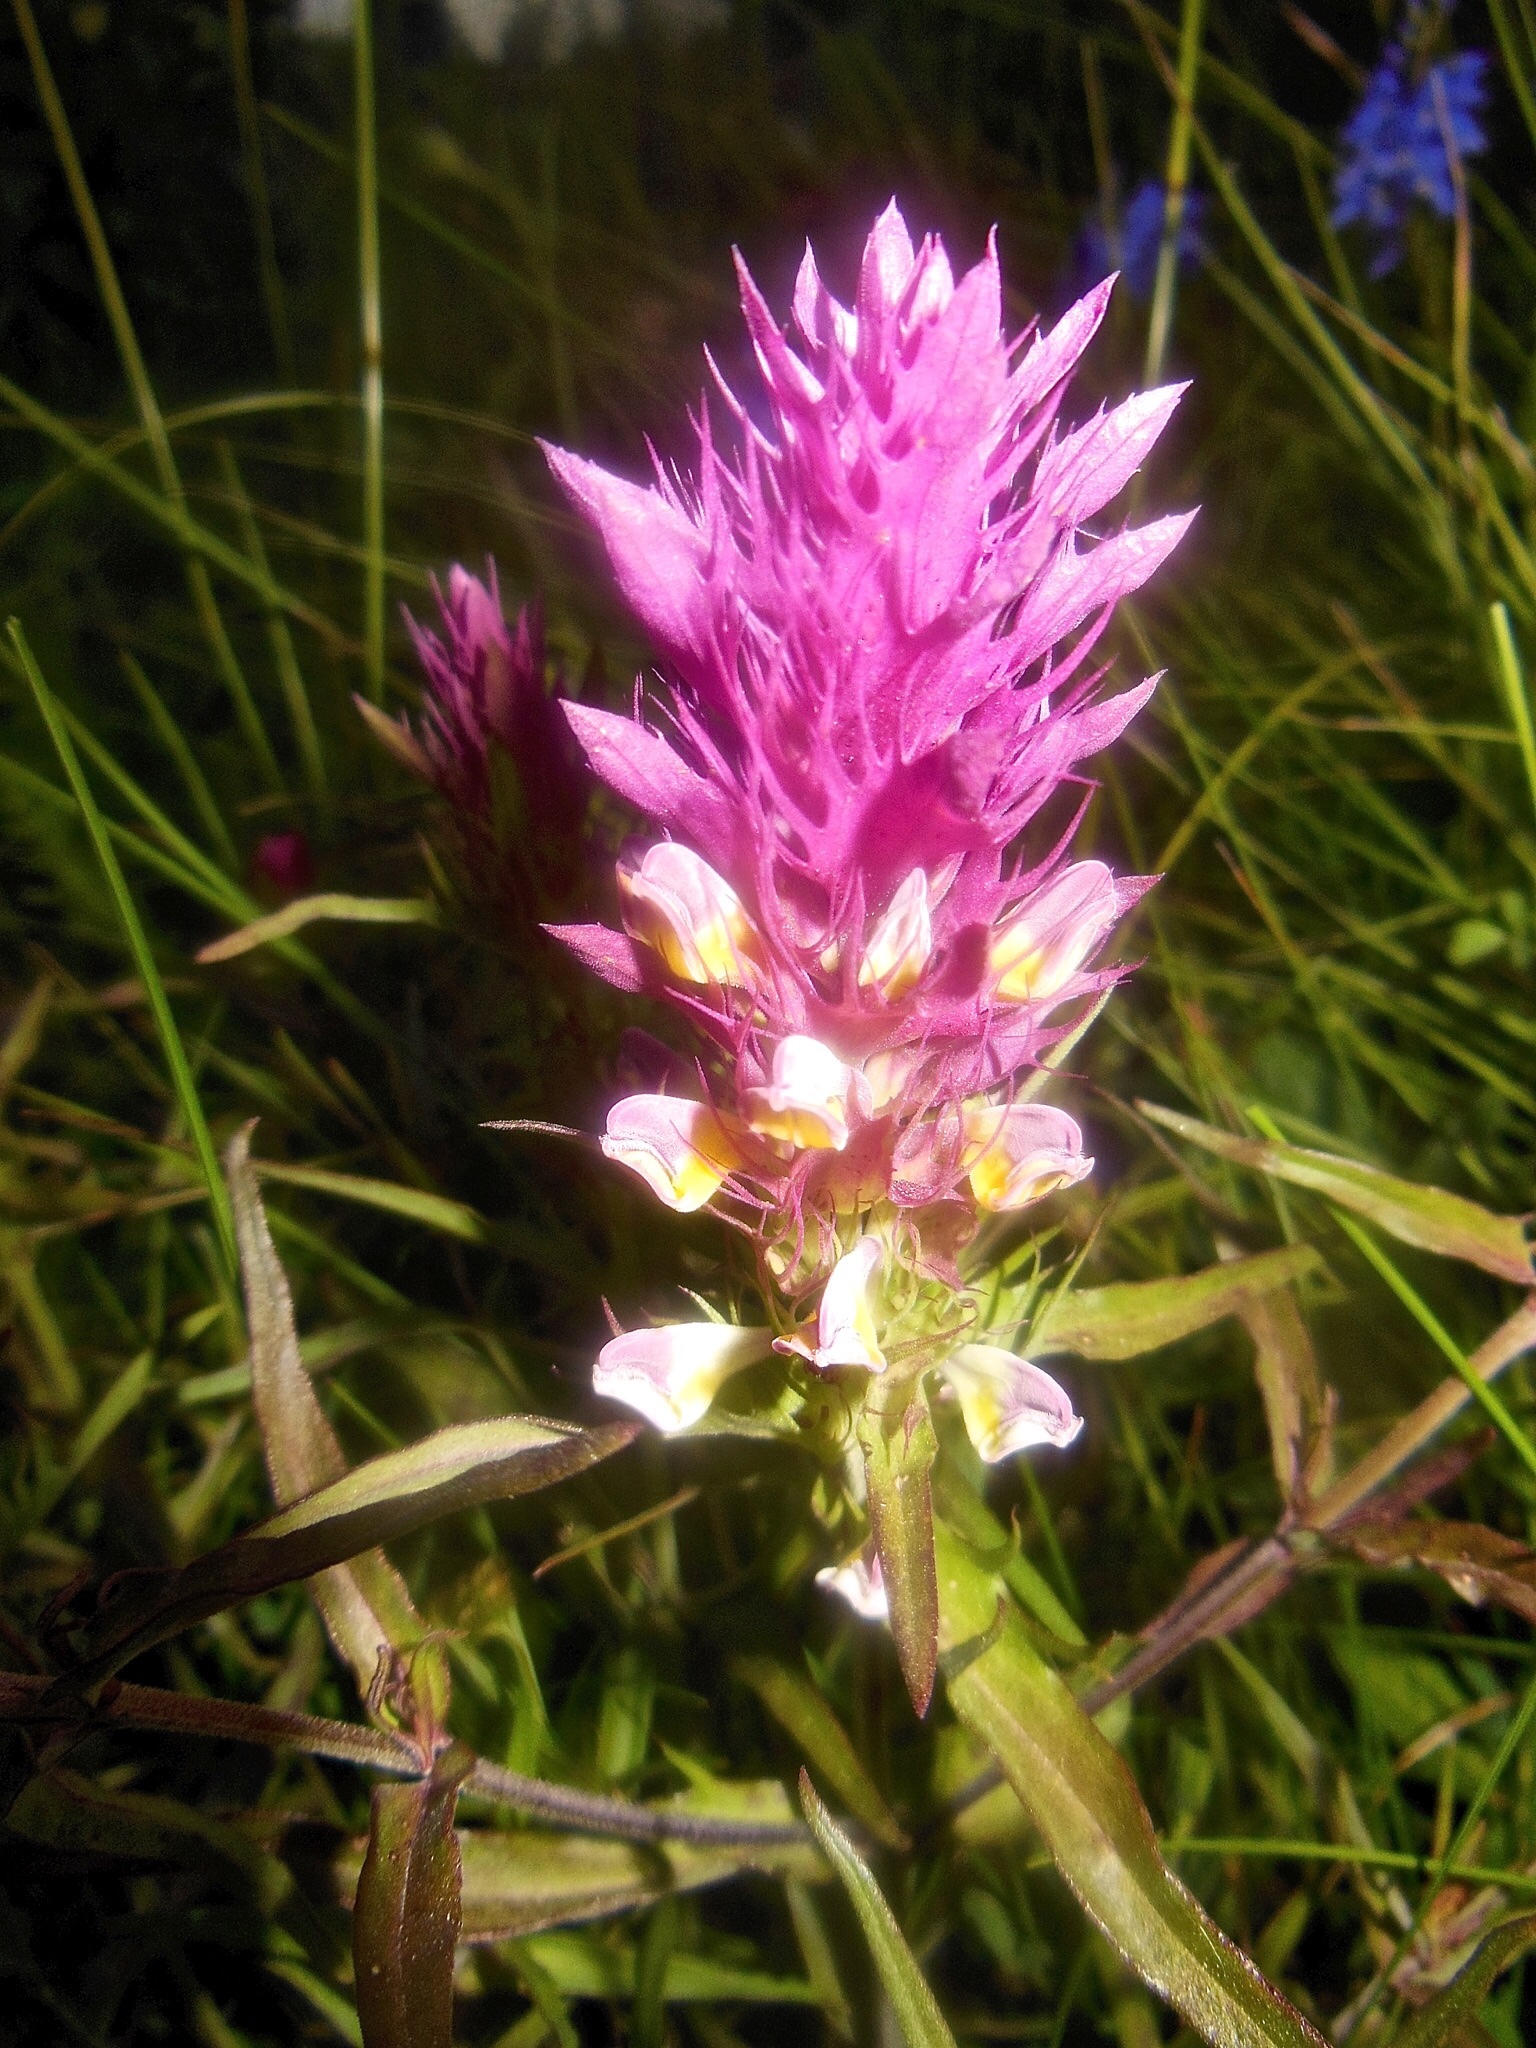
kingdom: Plantae
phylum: Tracheophyta
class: Magnoliopsida
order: Lamiales
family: Orobanchaceae
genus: Melampyrum
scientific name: Melampyrum arvense
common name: Field cow-wheat
